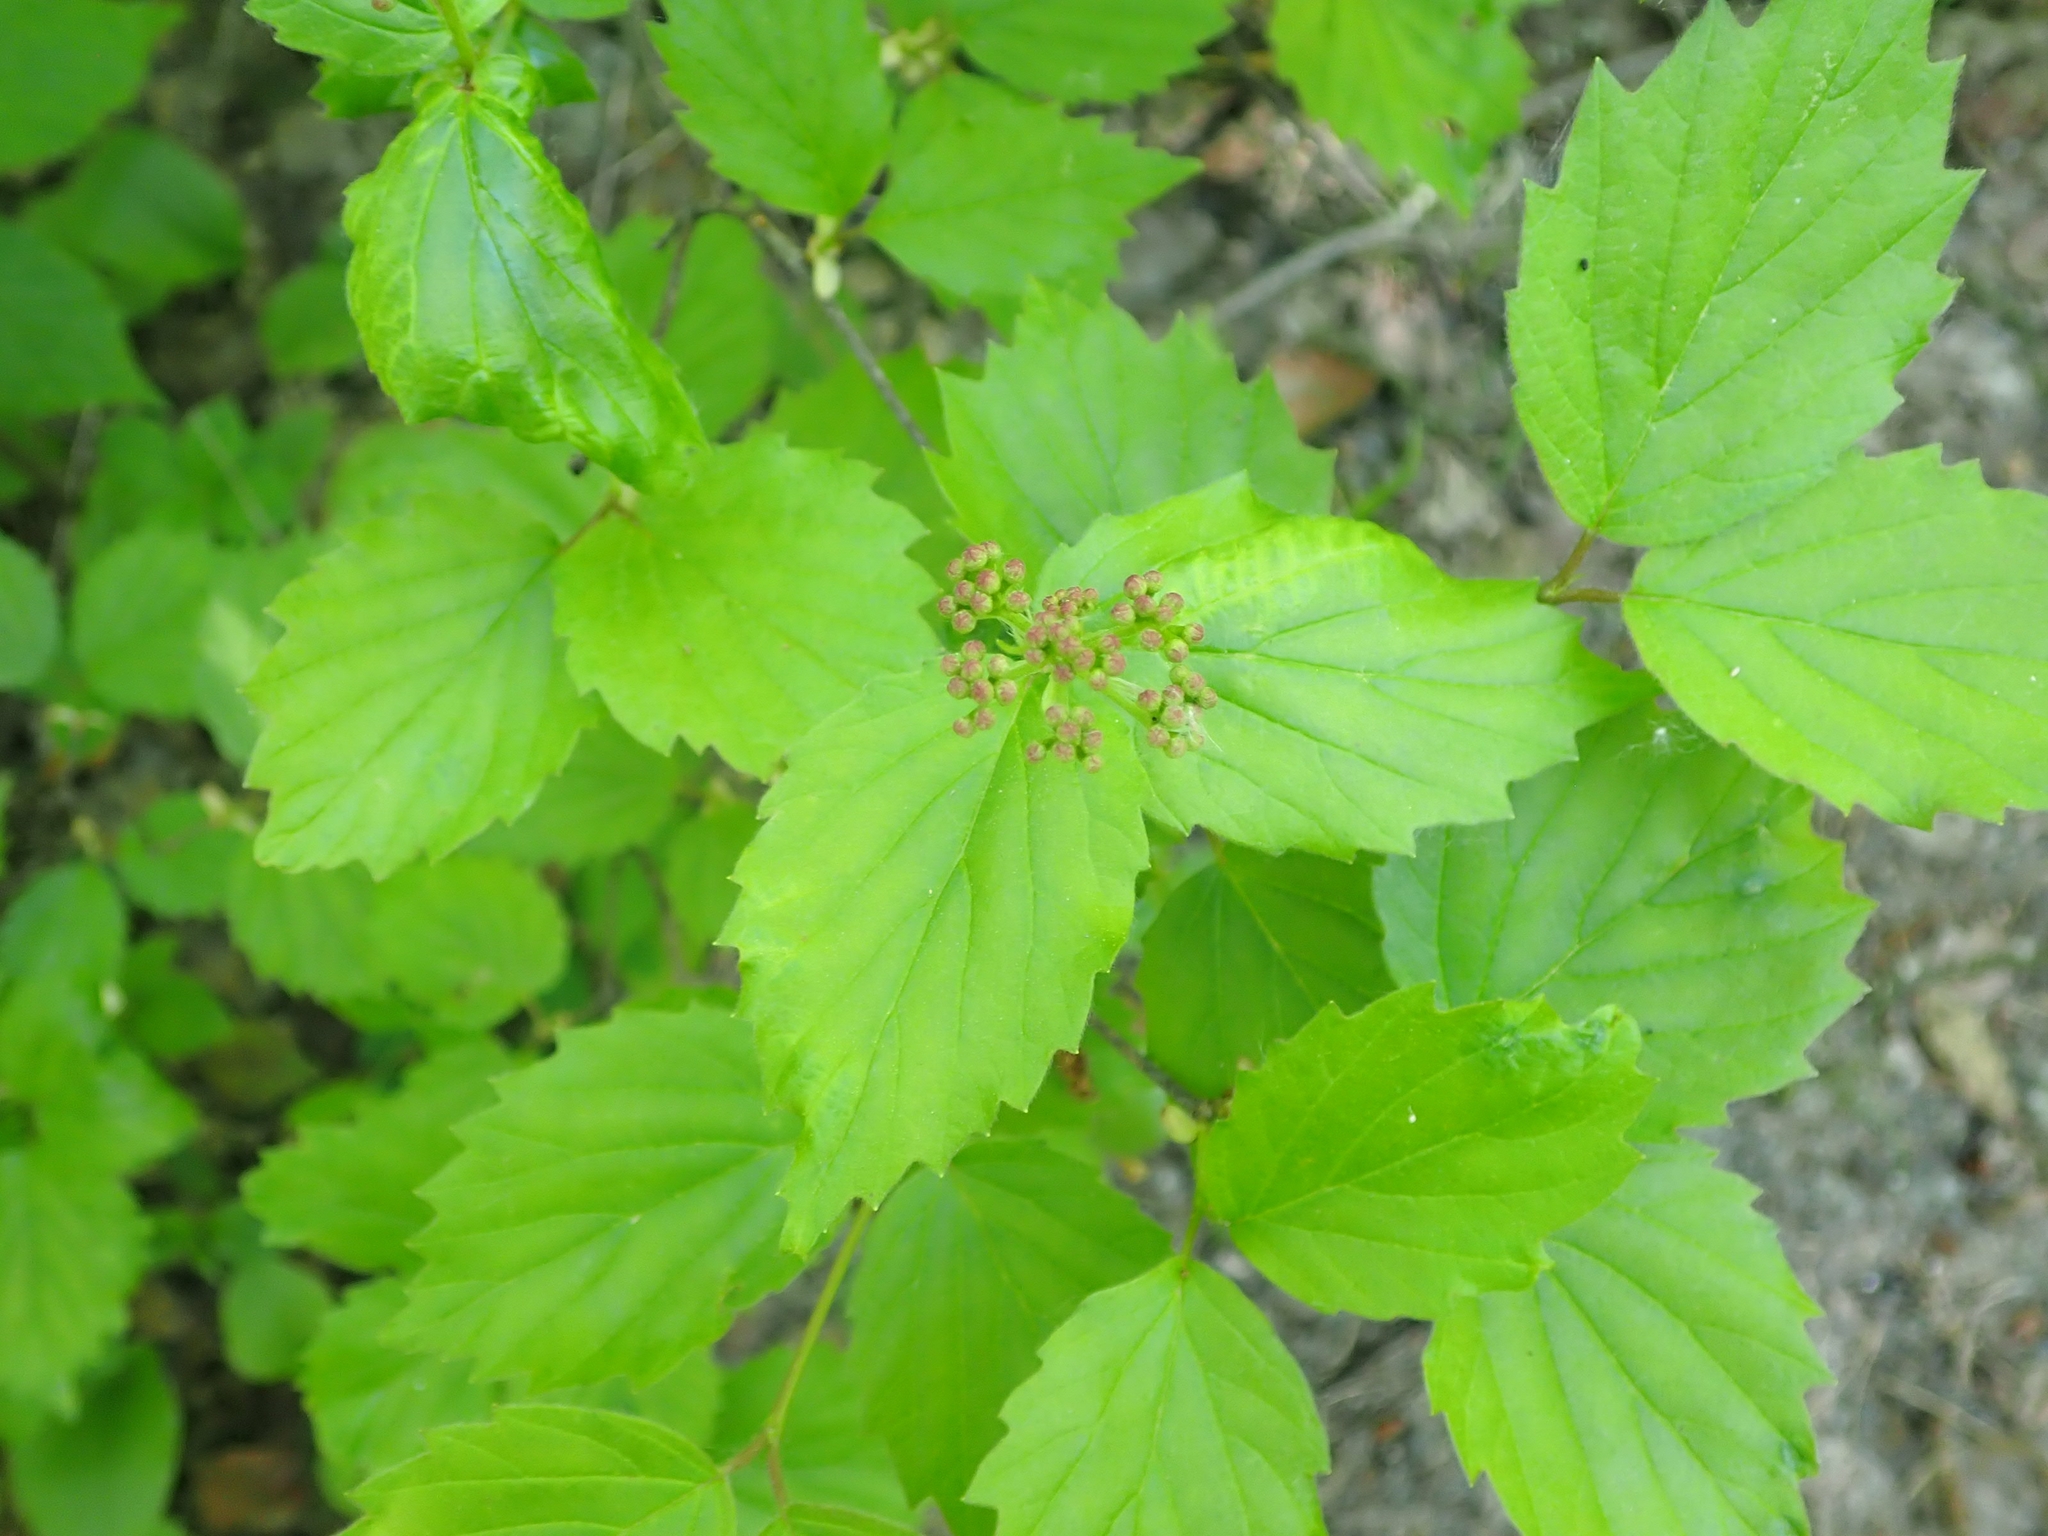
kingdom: Plantae
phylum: Tracheophyta
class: Magnoliopsida
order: Dipsacales
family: Viburnaceae
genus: Viburnum
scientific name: Viburnum rafinesqueanum
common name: Downy arrow-wood
